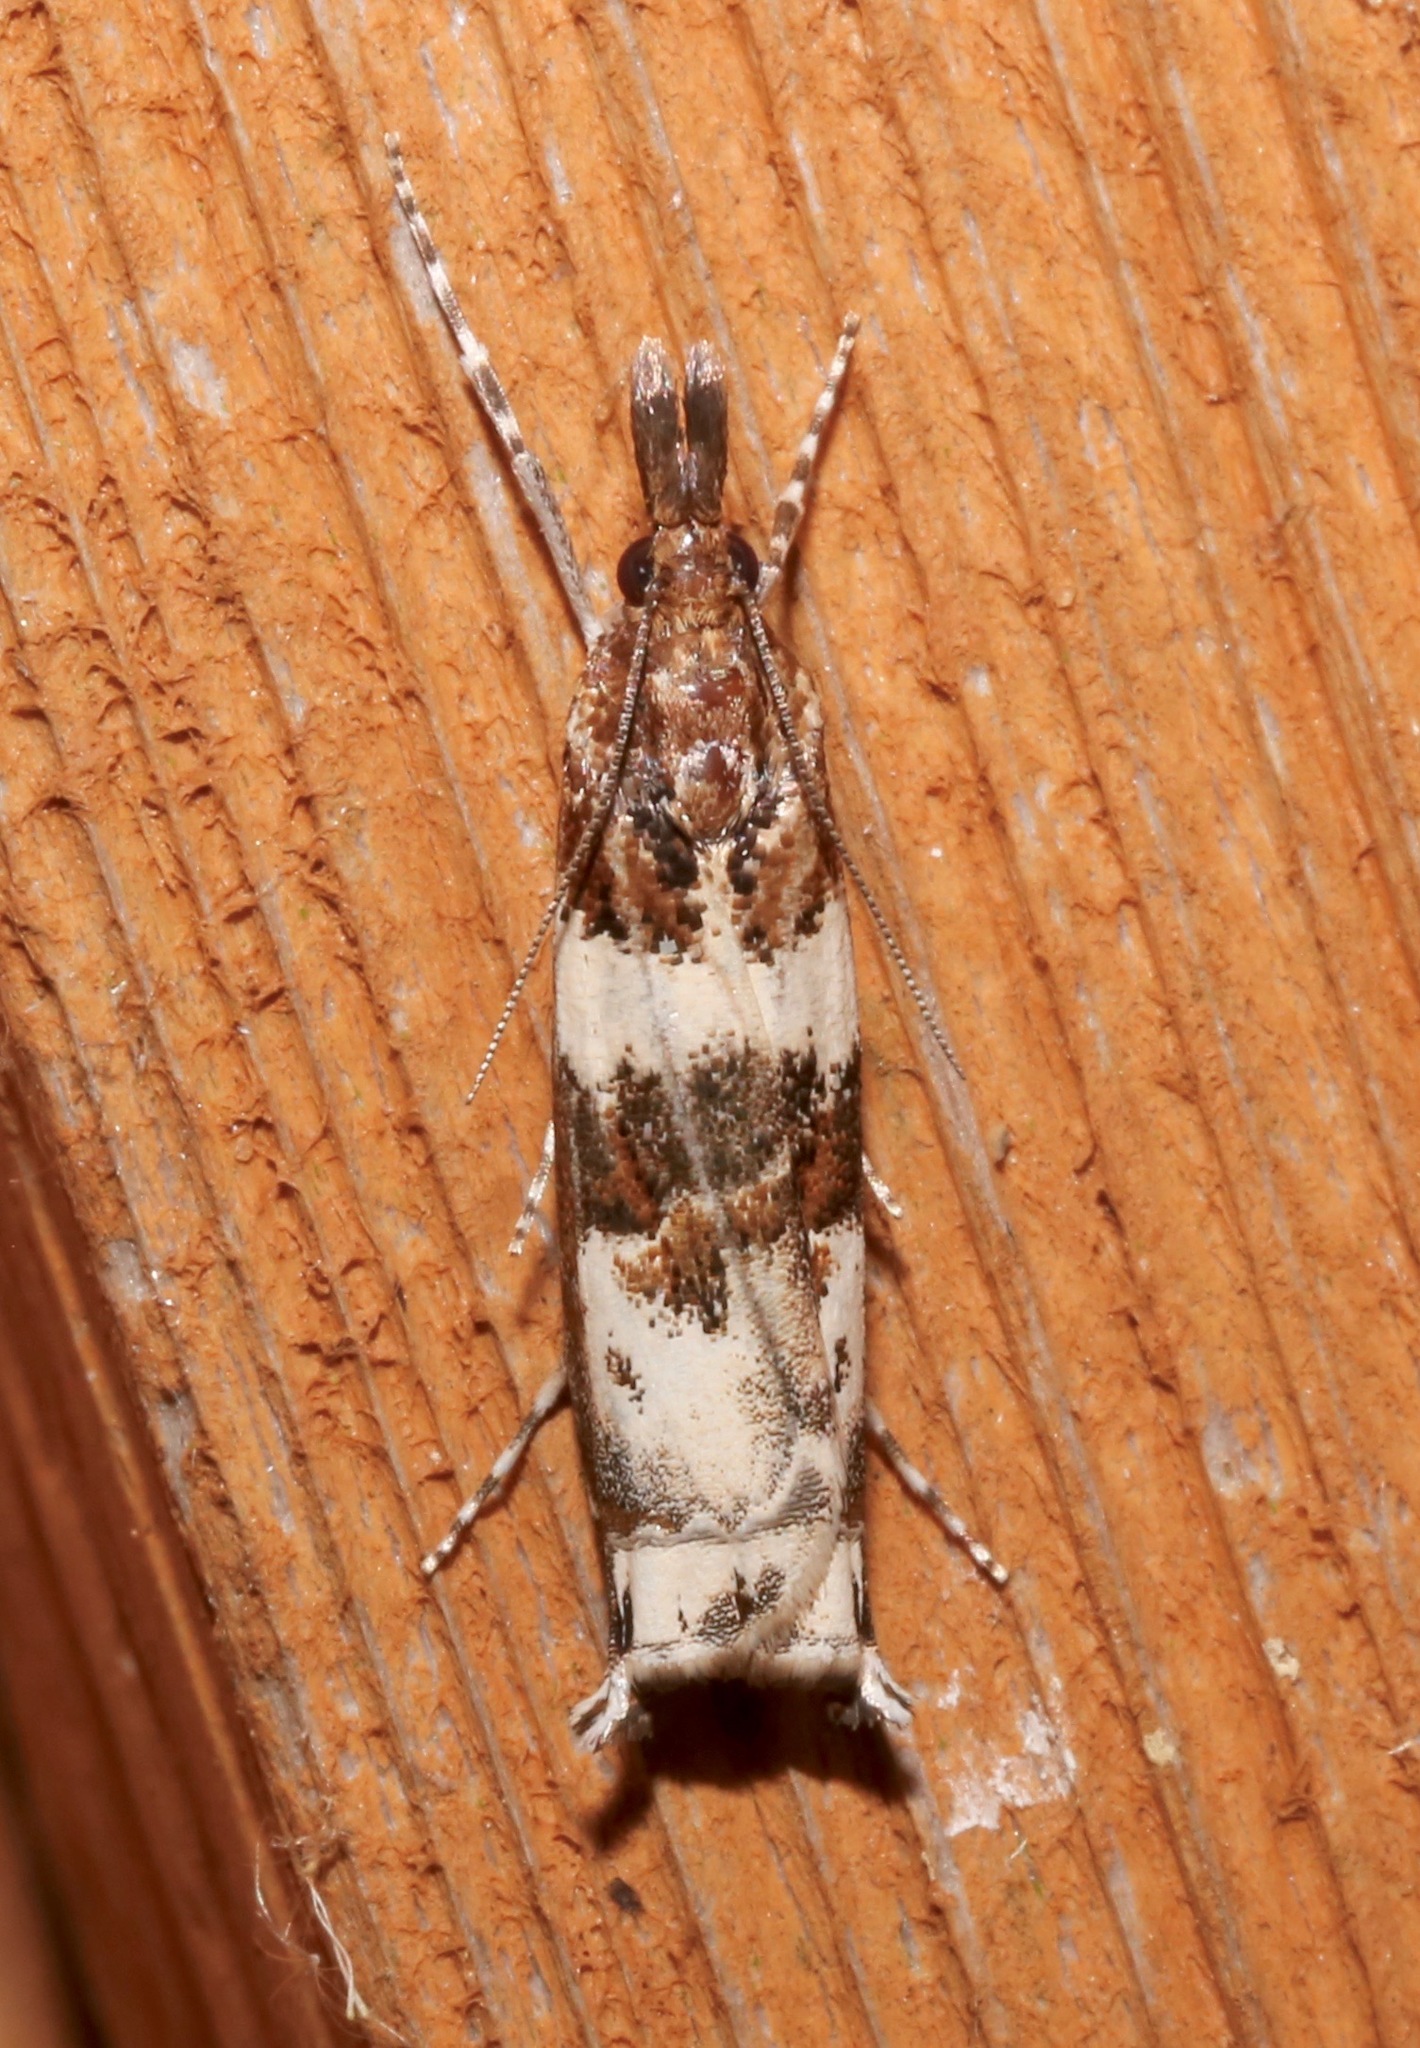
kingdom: Animalia
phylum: Arthropoda
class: Insecta
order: Lepidoptera
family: Crambidae
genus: Prionapteryx
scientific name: Prionapteryx nebulifera
